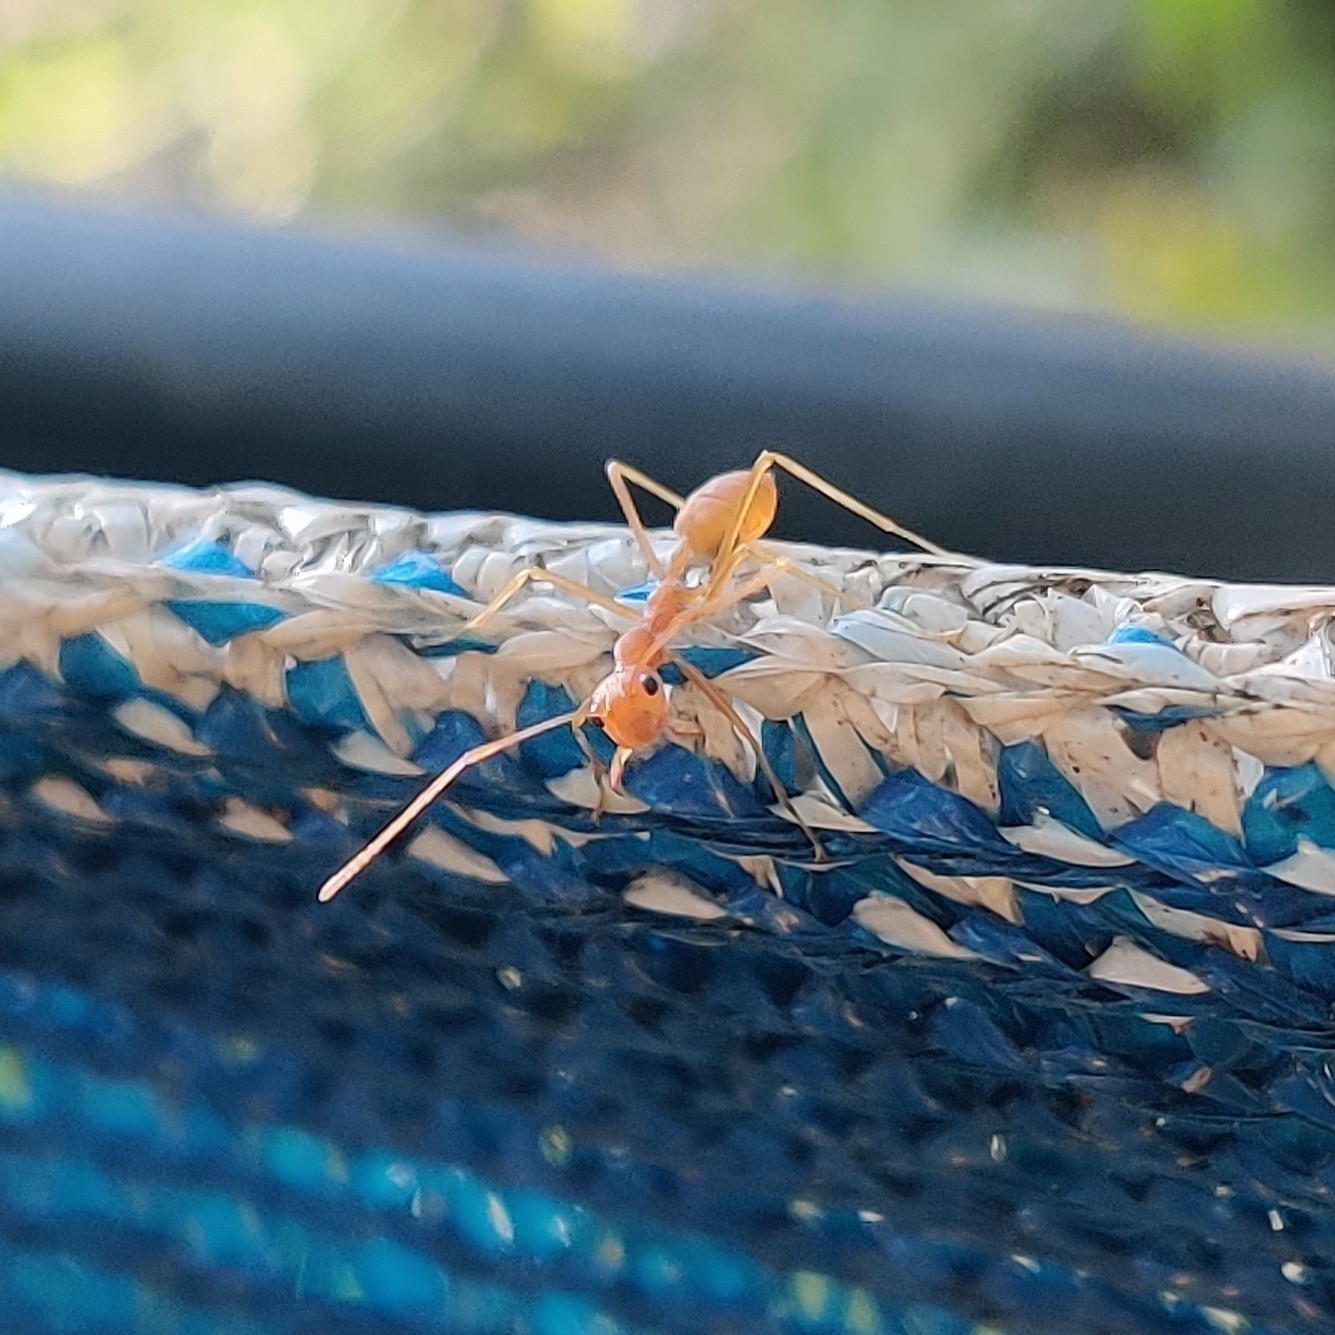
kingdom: Animalia
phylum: Arthropoda
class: Insecta
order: Hymenoptera
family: Formicidae
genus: Oecophylla
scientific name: Oecophylla smaragdina
